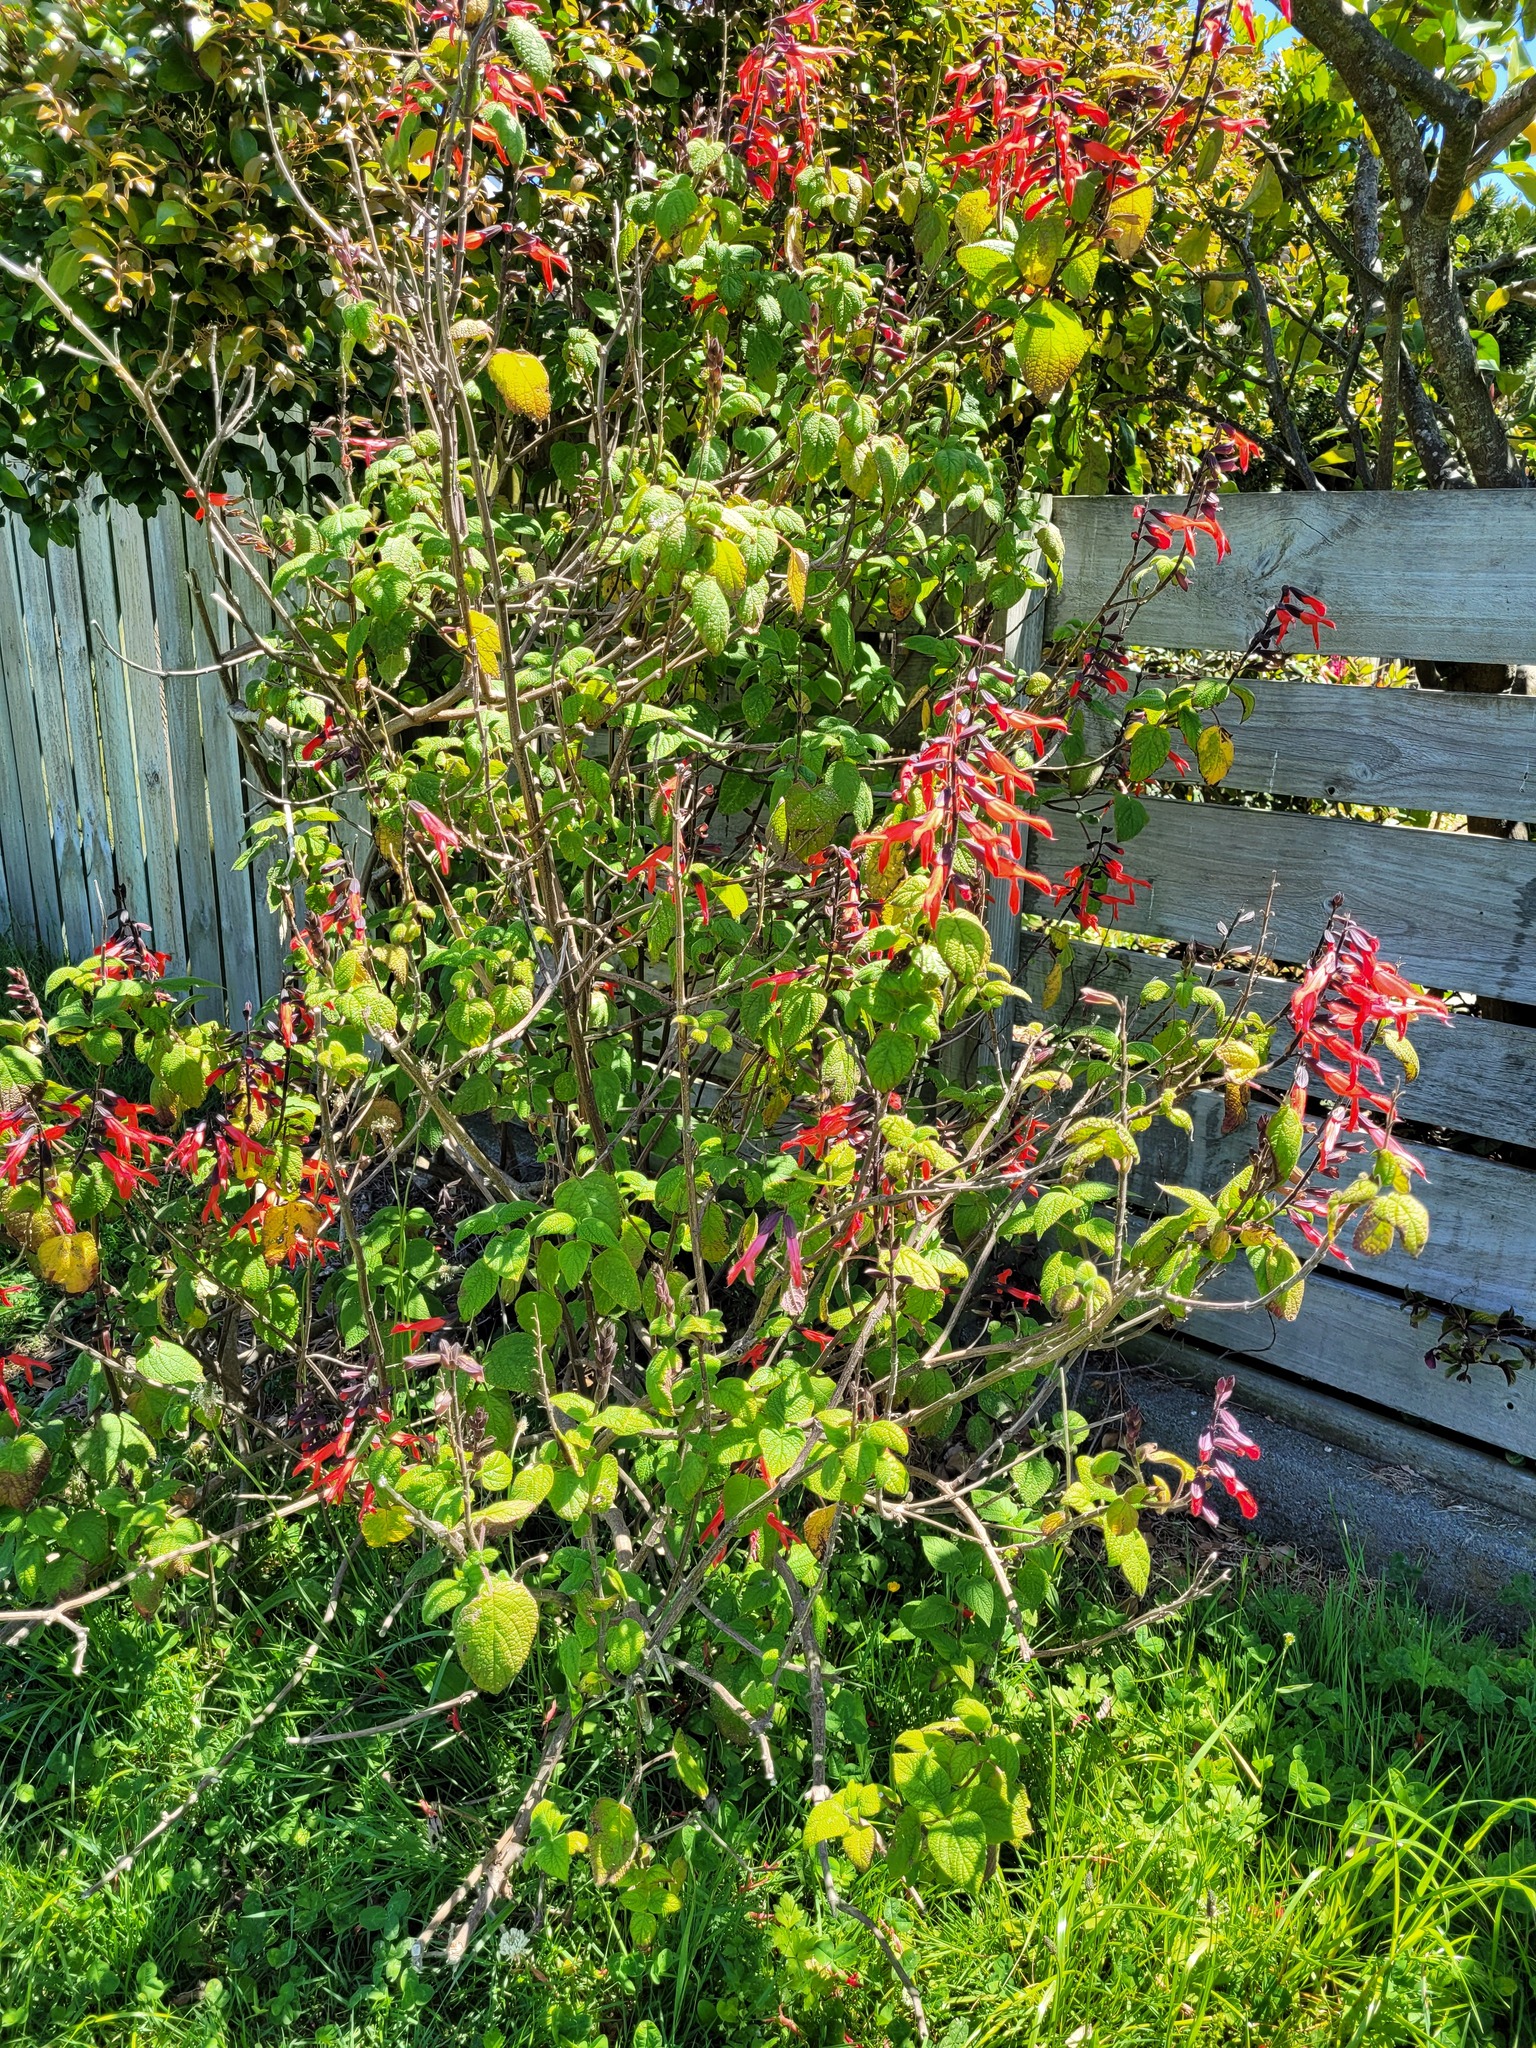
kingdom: Plantae
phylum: Tracheophyta
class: Magnoliopsida
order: Lamiales
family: Lamiaceae
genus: Salvia
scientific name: Salvia elegans
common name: Pineapple sage
